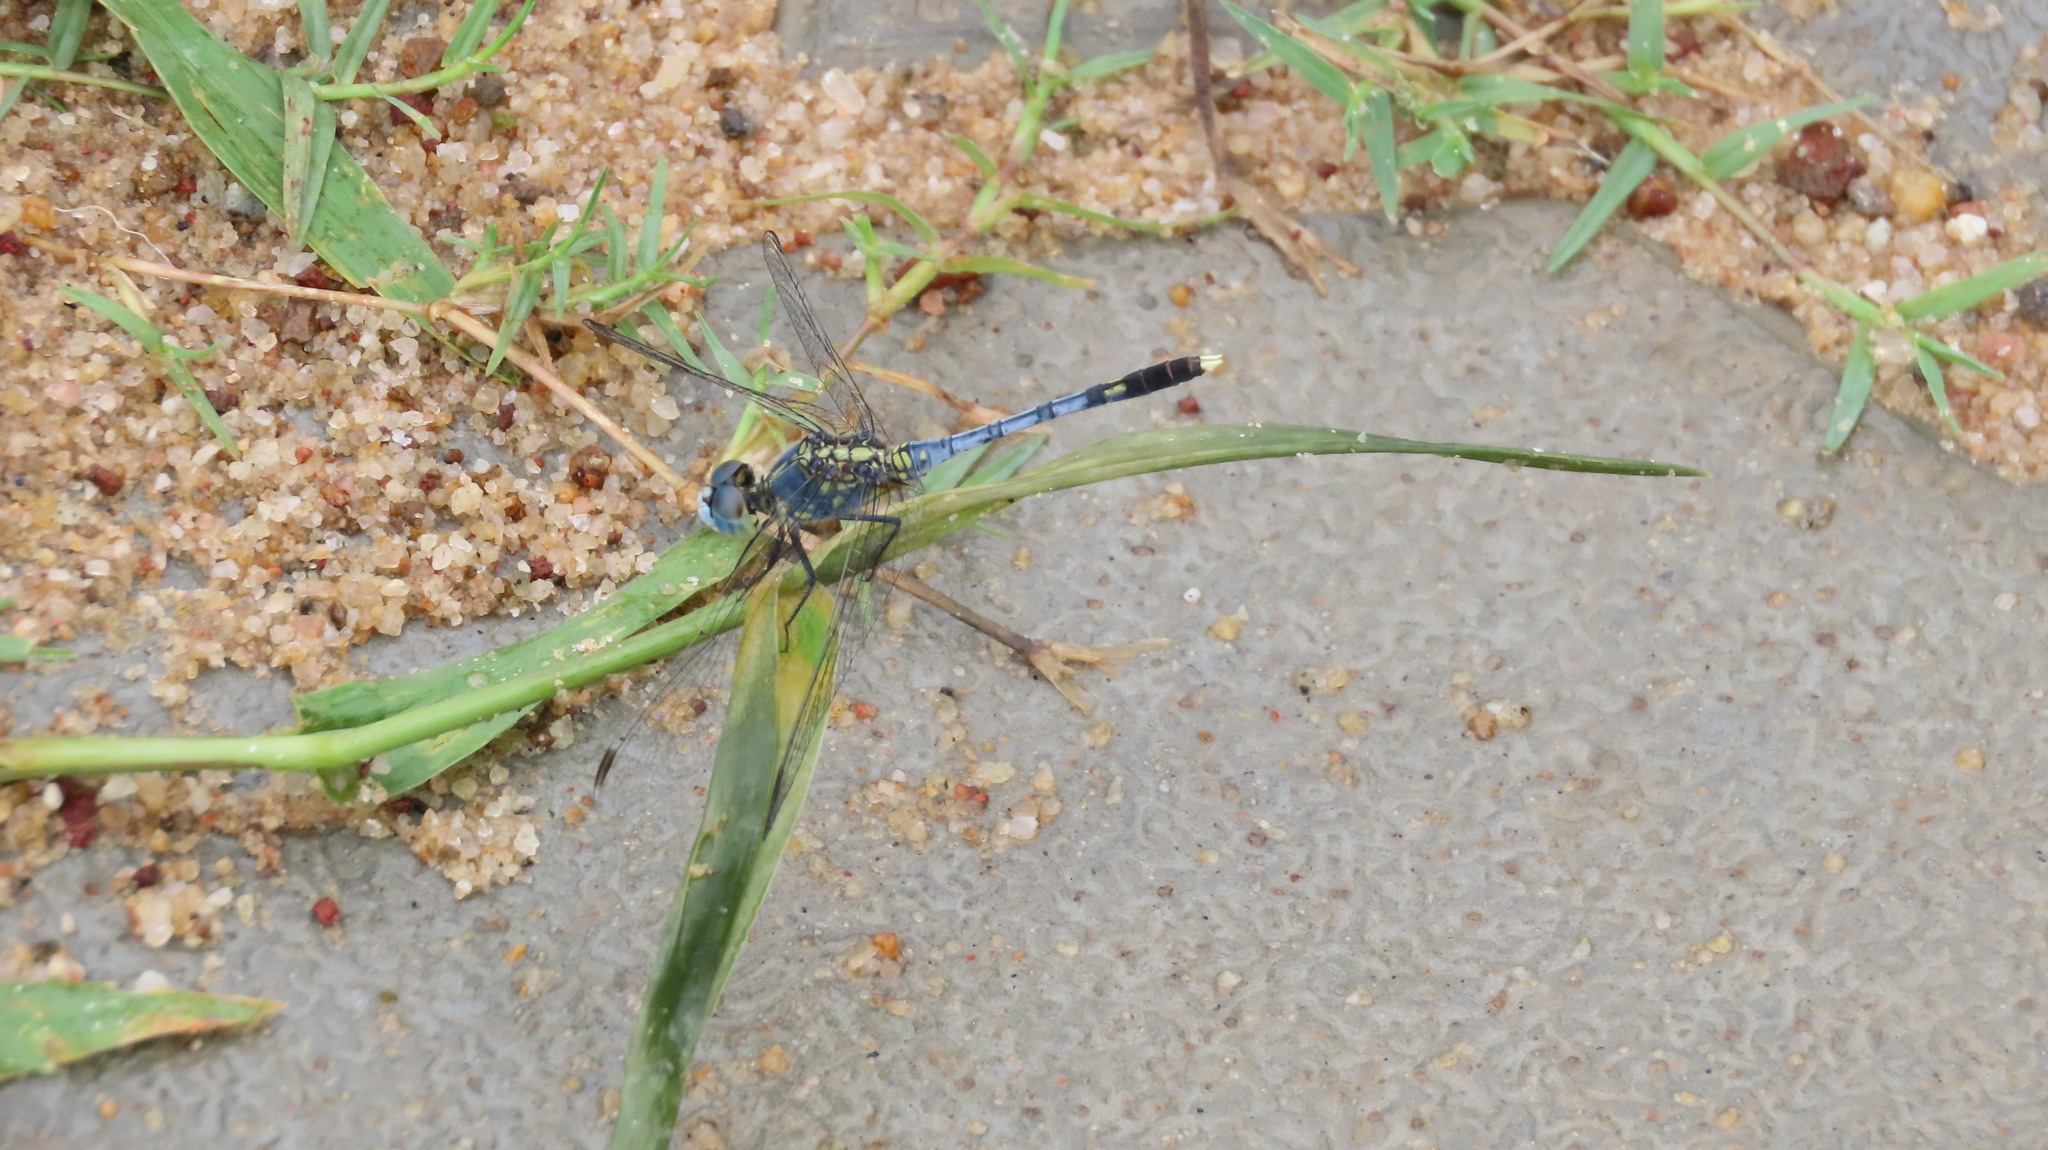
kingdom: Animalia
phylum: Arthropoda
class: Insecta
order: Odonata
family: Libellulidae
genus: Diplacodes
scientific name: Diplacodes trivialis
